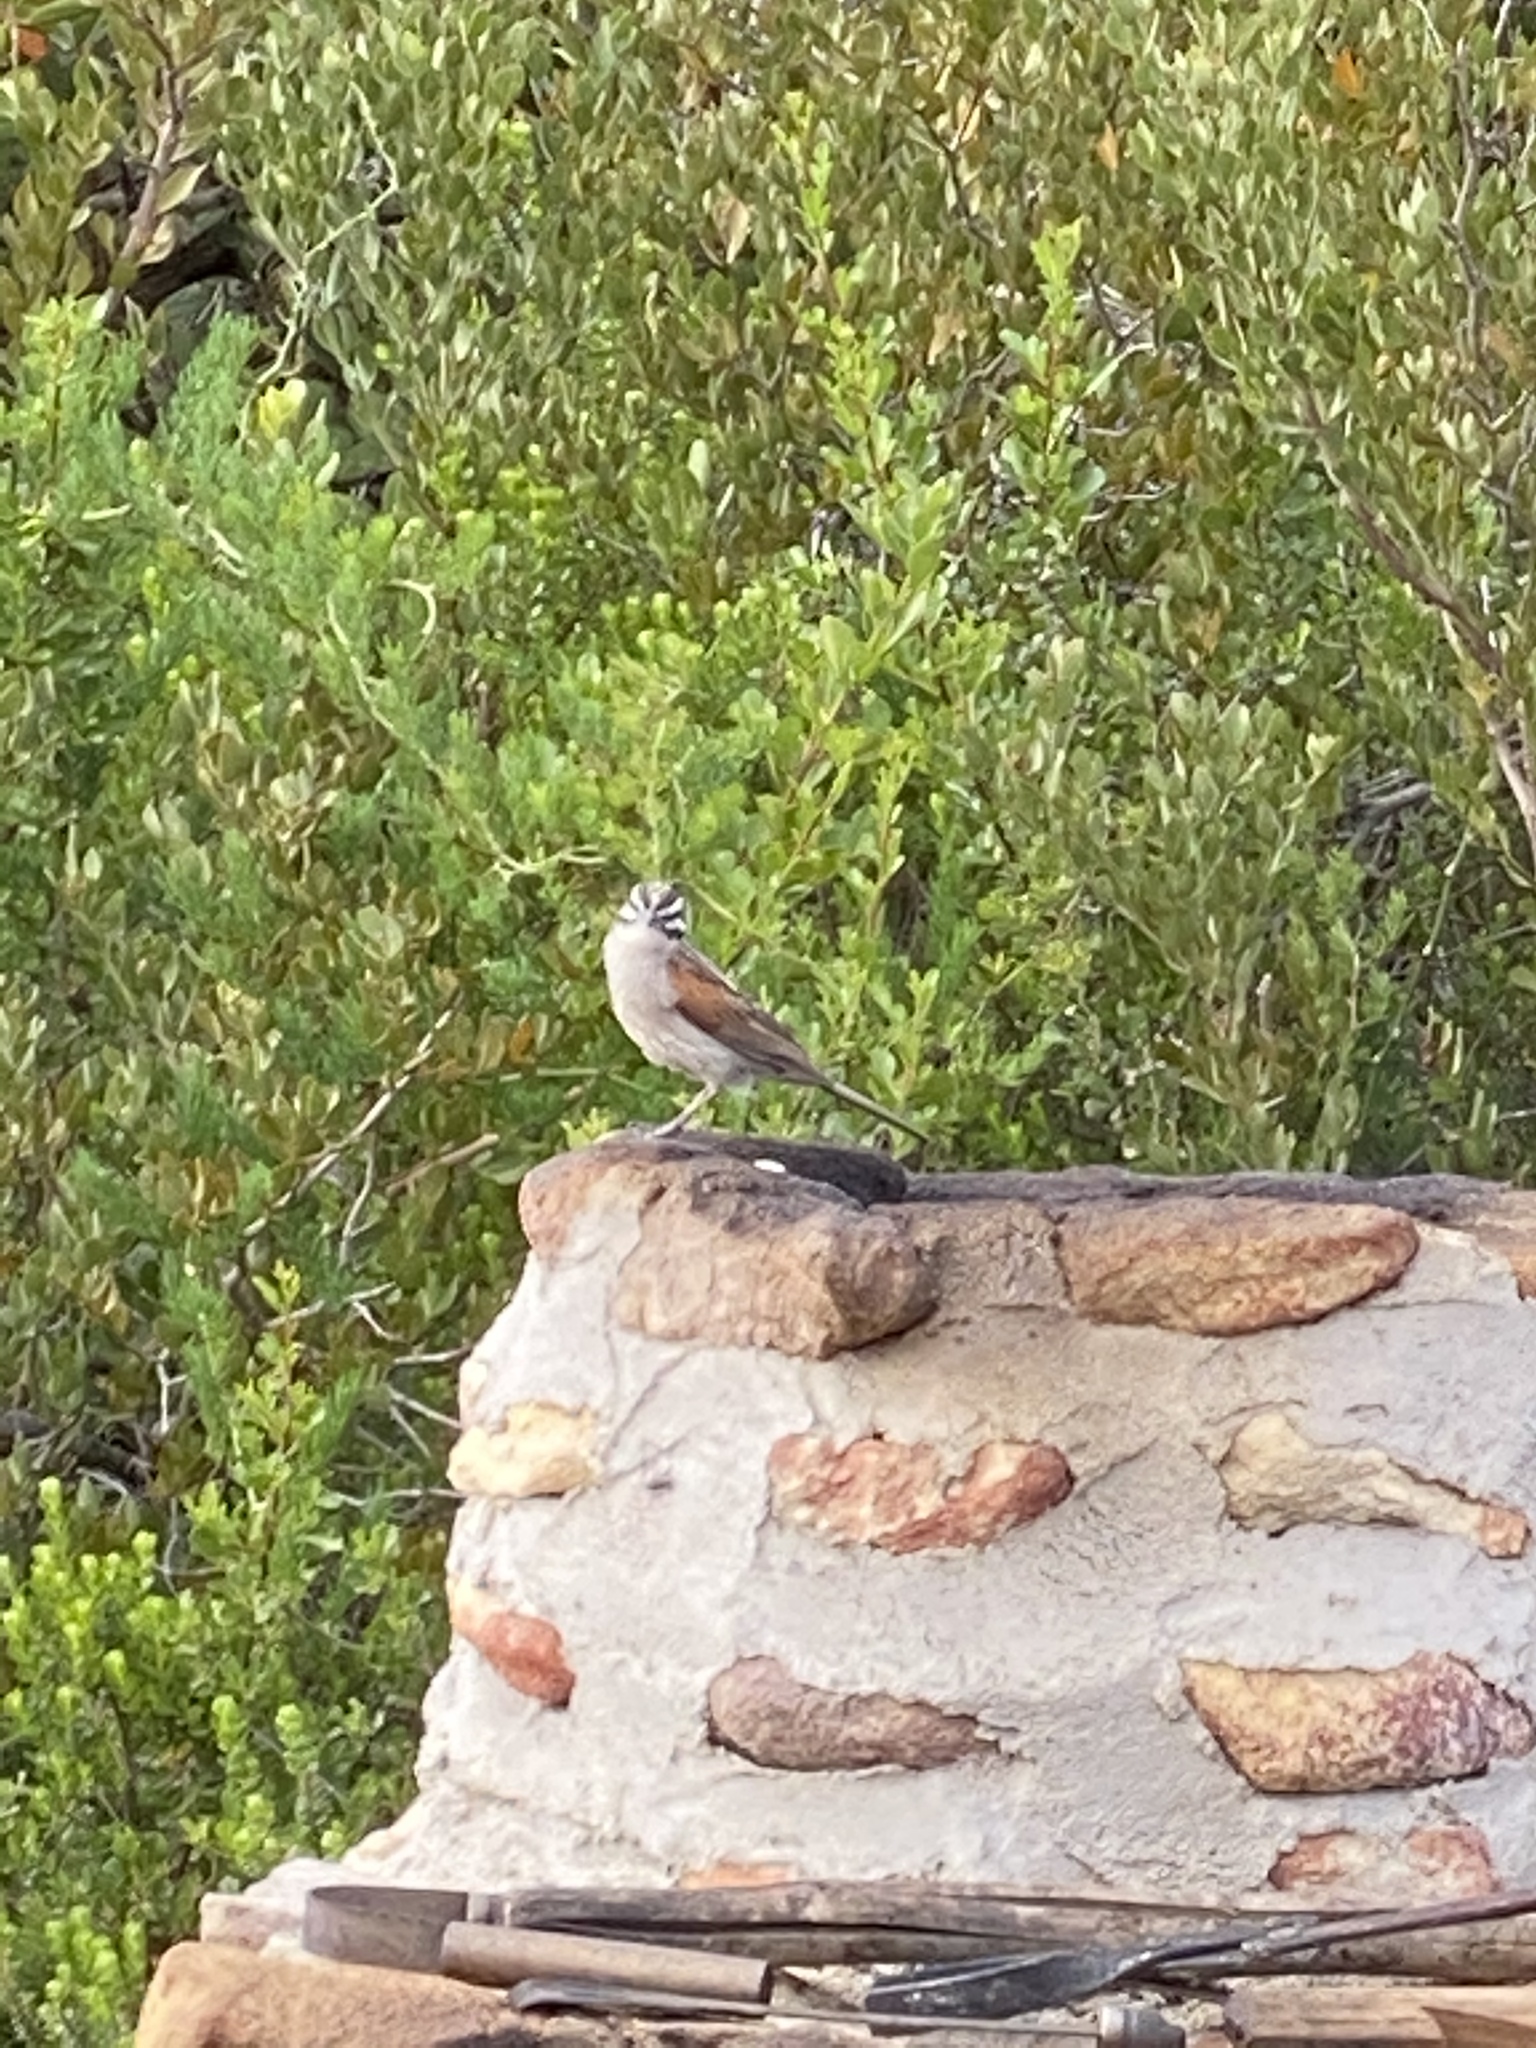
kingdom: Animalia
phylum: Chordata
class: Aves
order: Passeriformes
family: Emberizidae
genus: Emberiza
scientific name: Emberiza capensis
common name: Cape bunting
